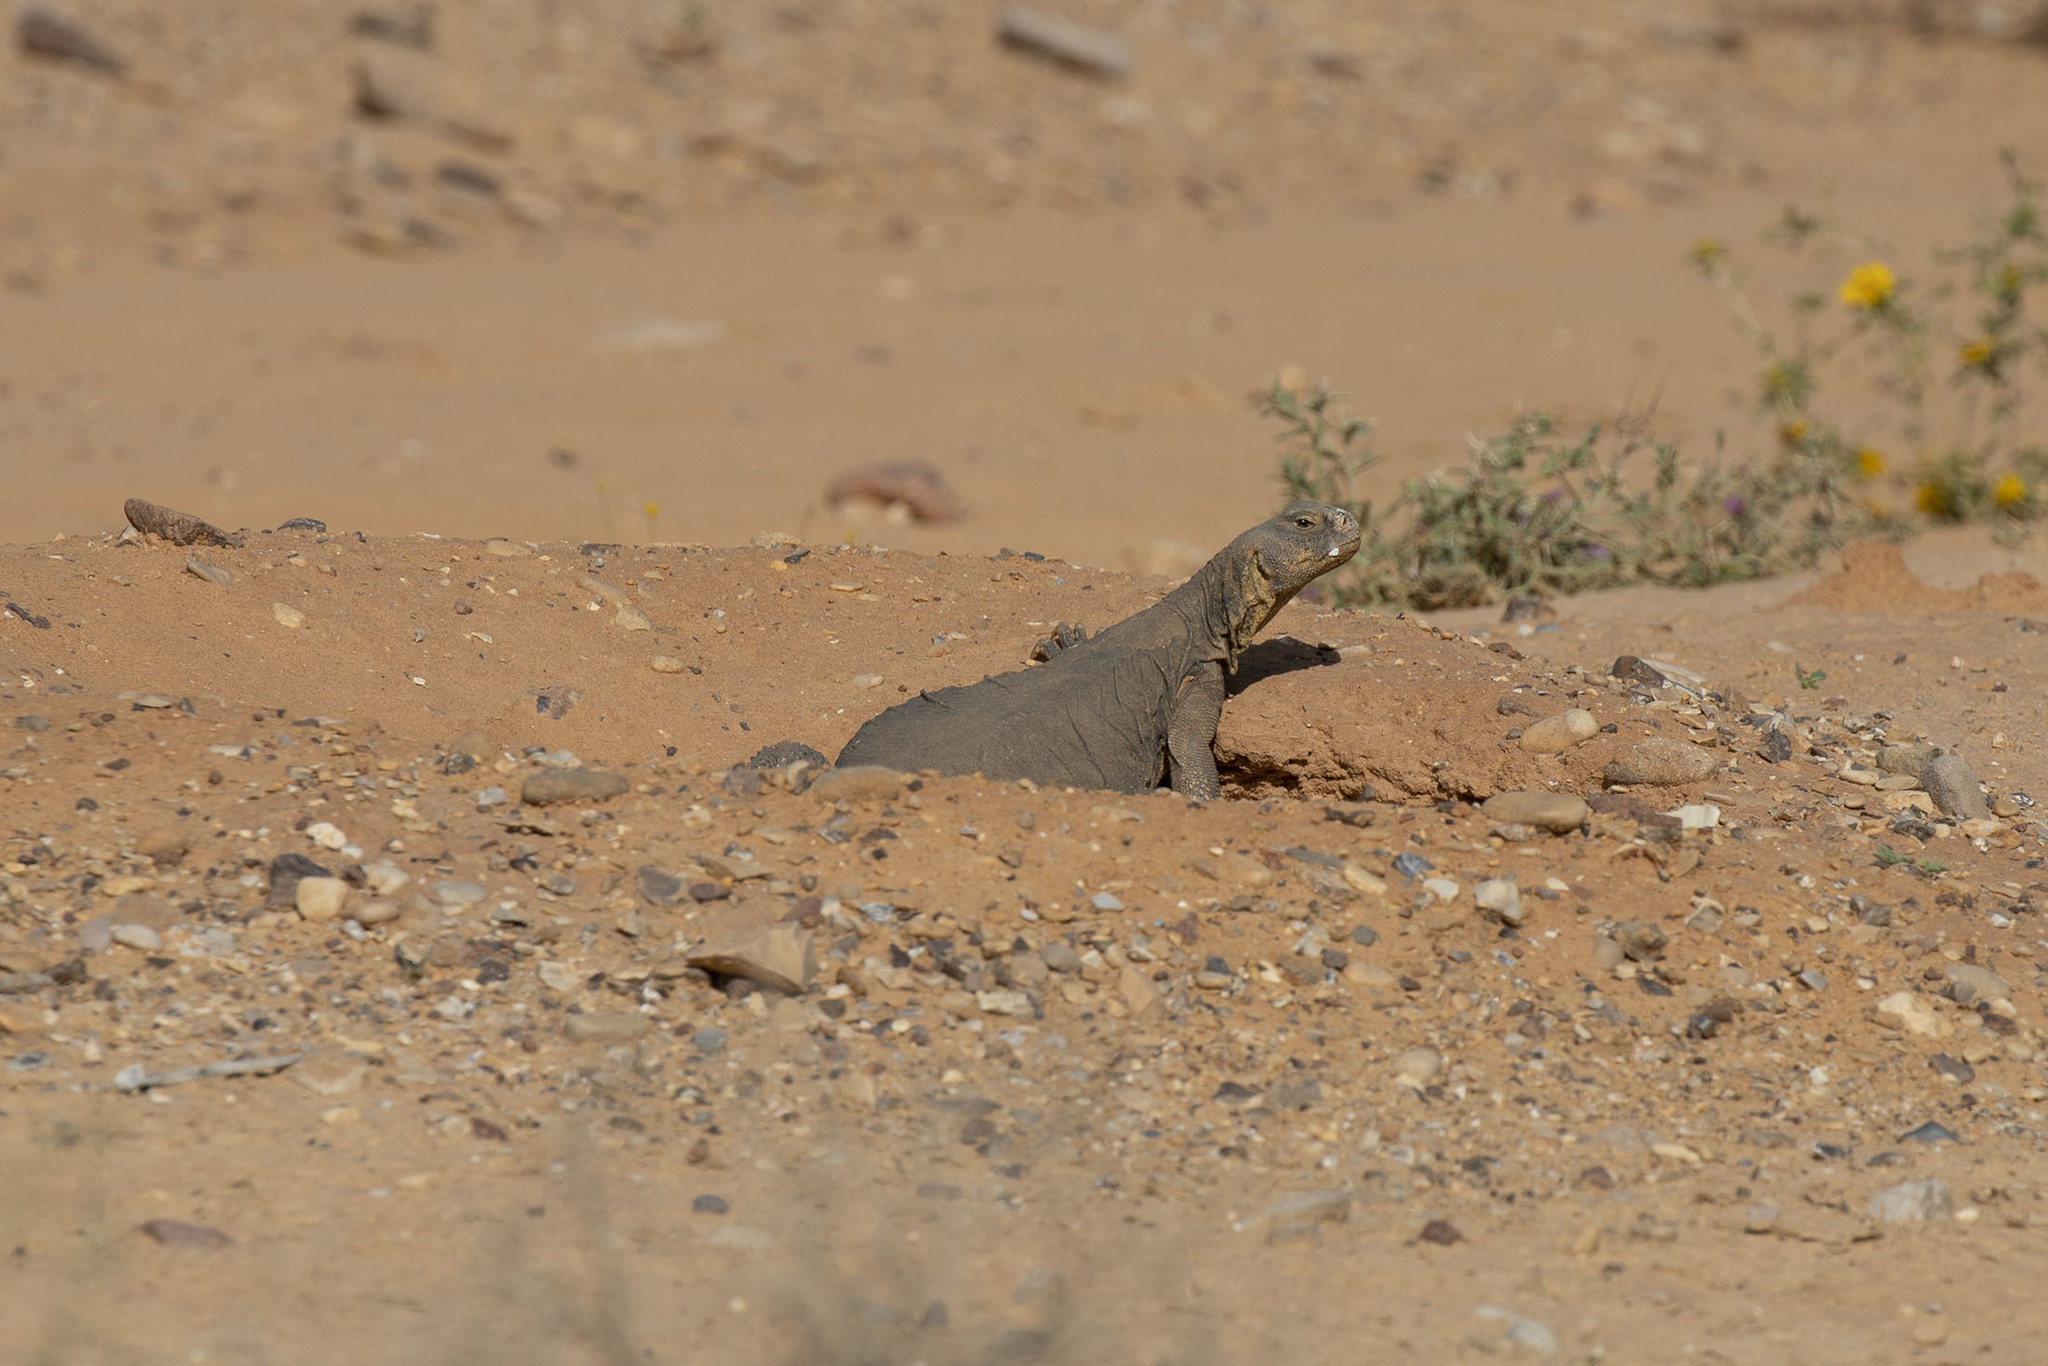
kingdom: Animalia
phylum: Chordata
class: Squamata
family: Agamidae
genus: Uromastyx
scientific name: Uromastyx aegyptia
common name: Egyptian mastigure
